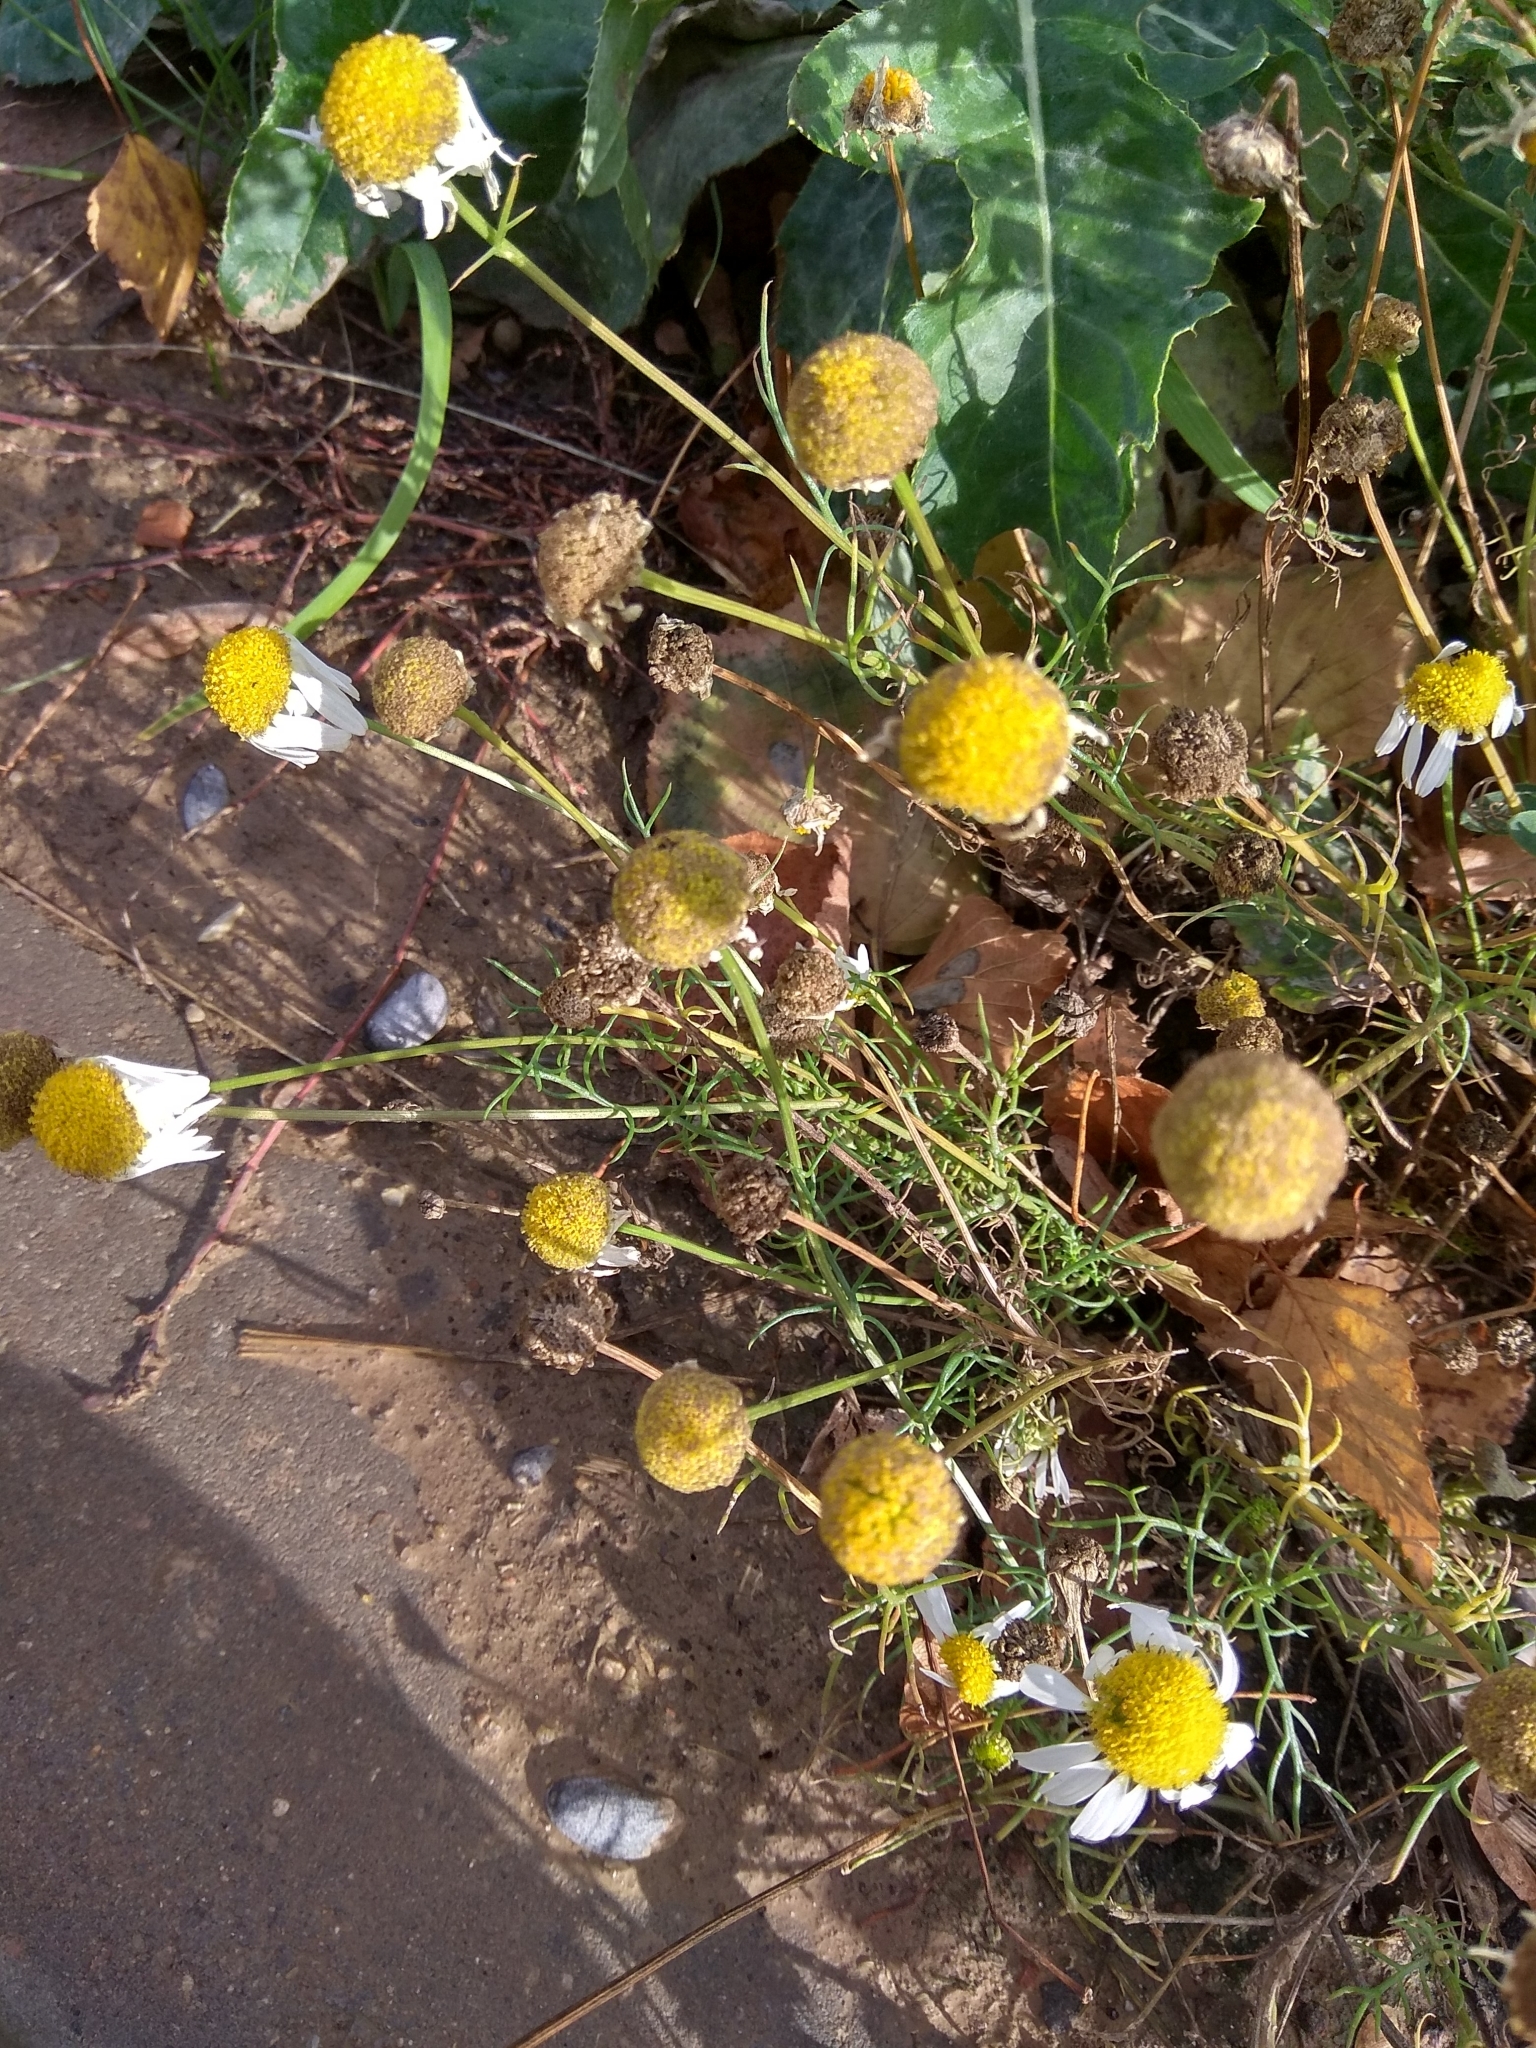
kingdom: Plantae
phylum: Tracheophyta
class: Magnoliopsida
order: Asterales
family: Asteraceae
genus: Tripleurospermum
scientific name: Tripleurospermum inodorum
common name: Scentless mayweed
